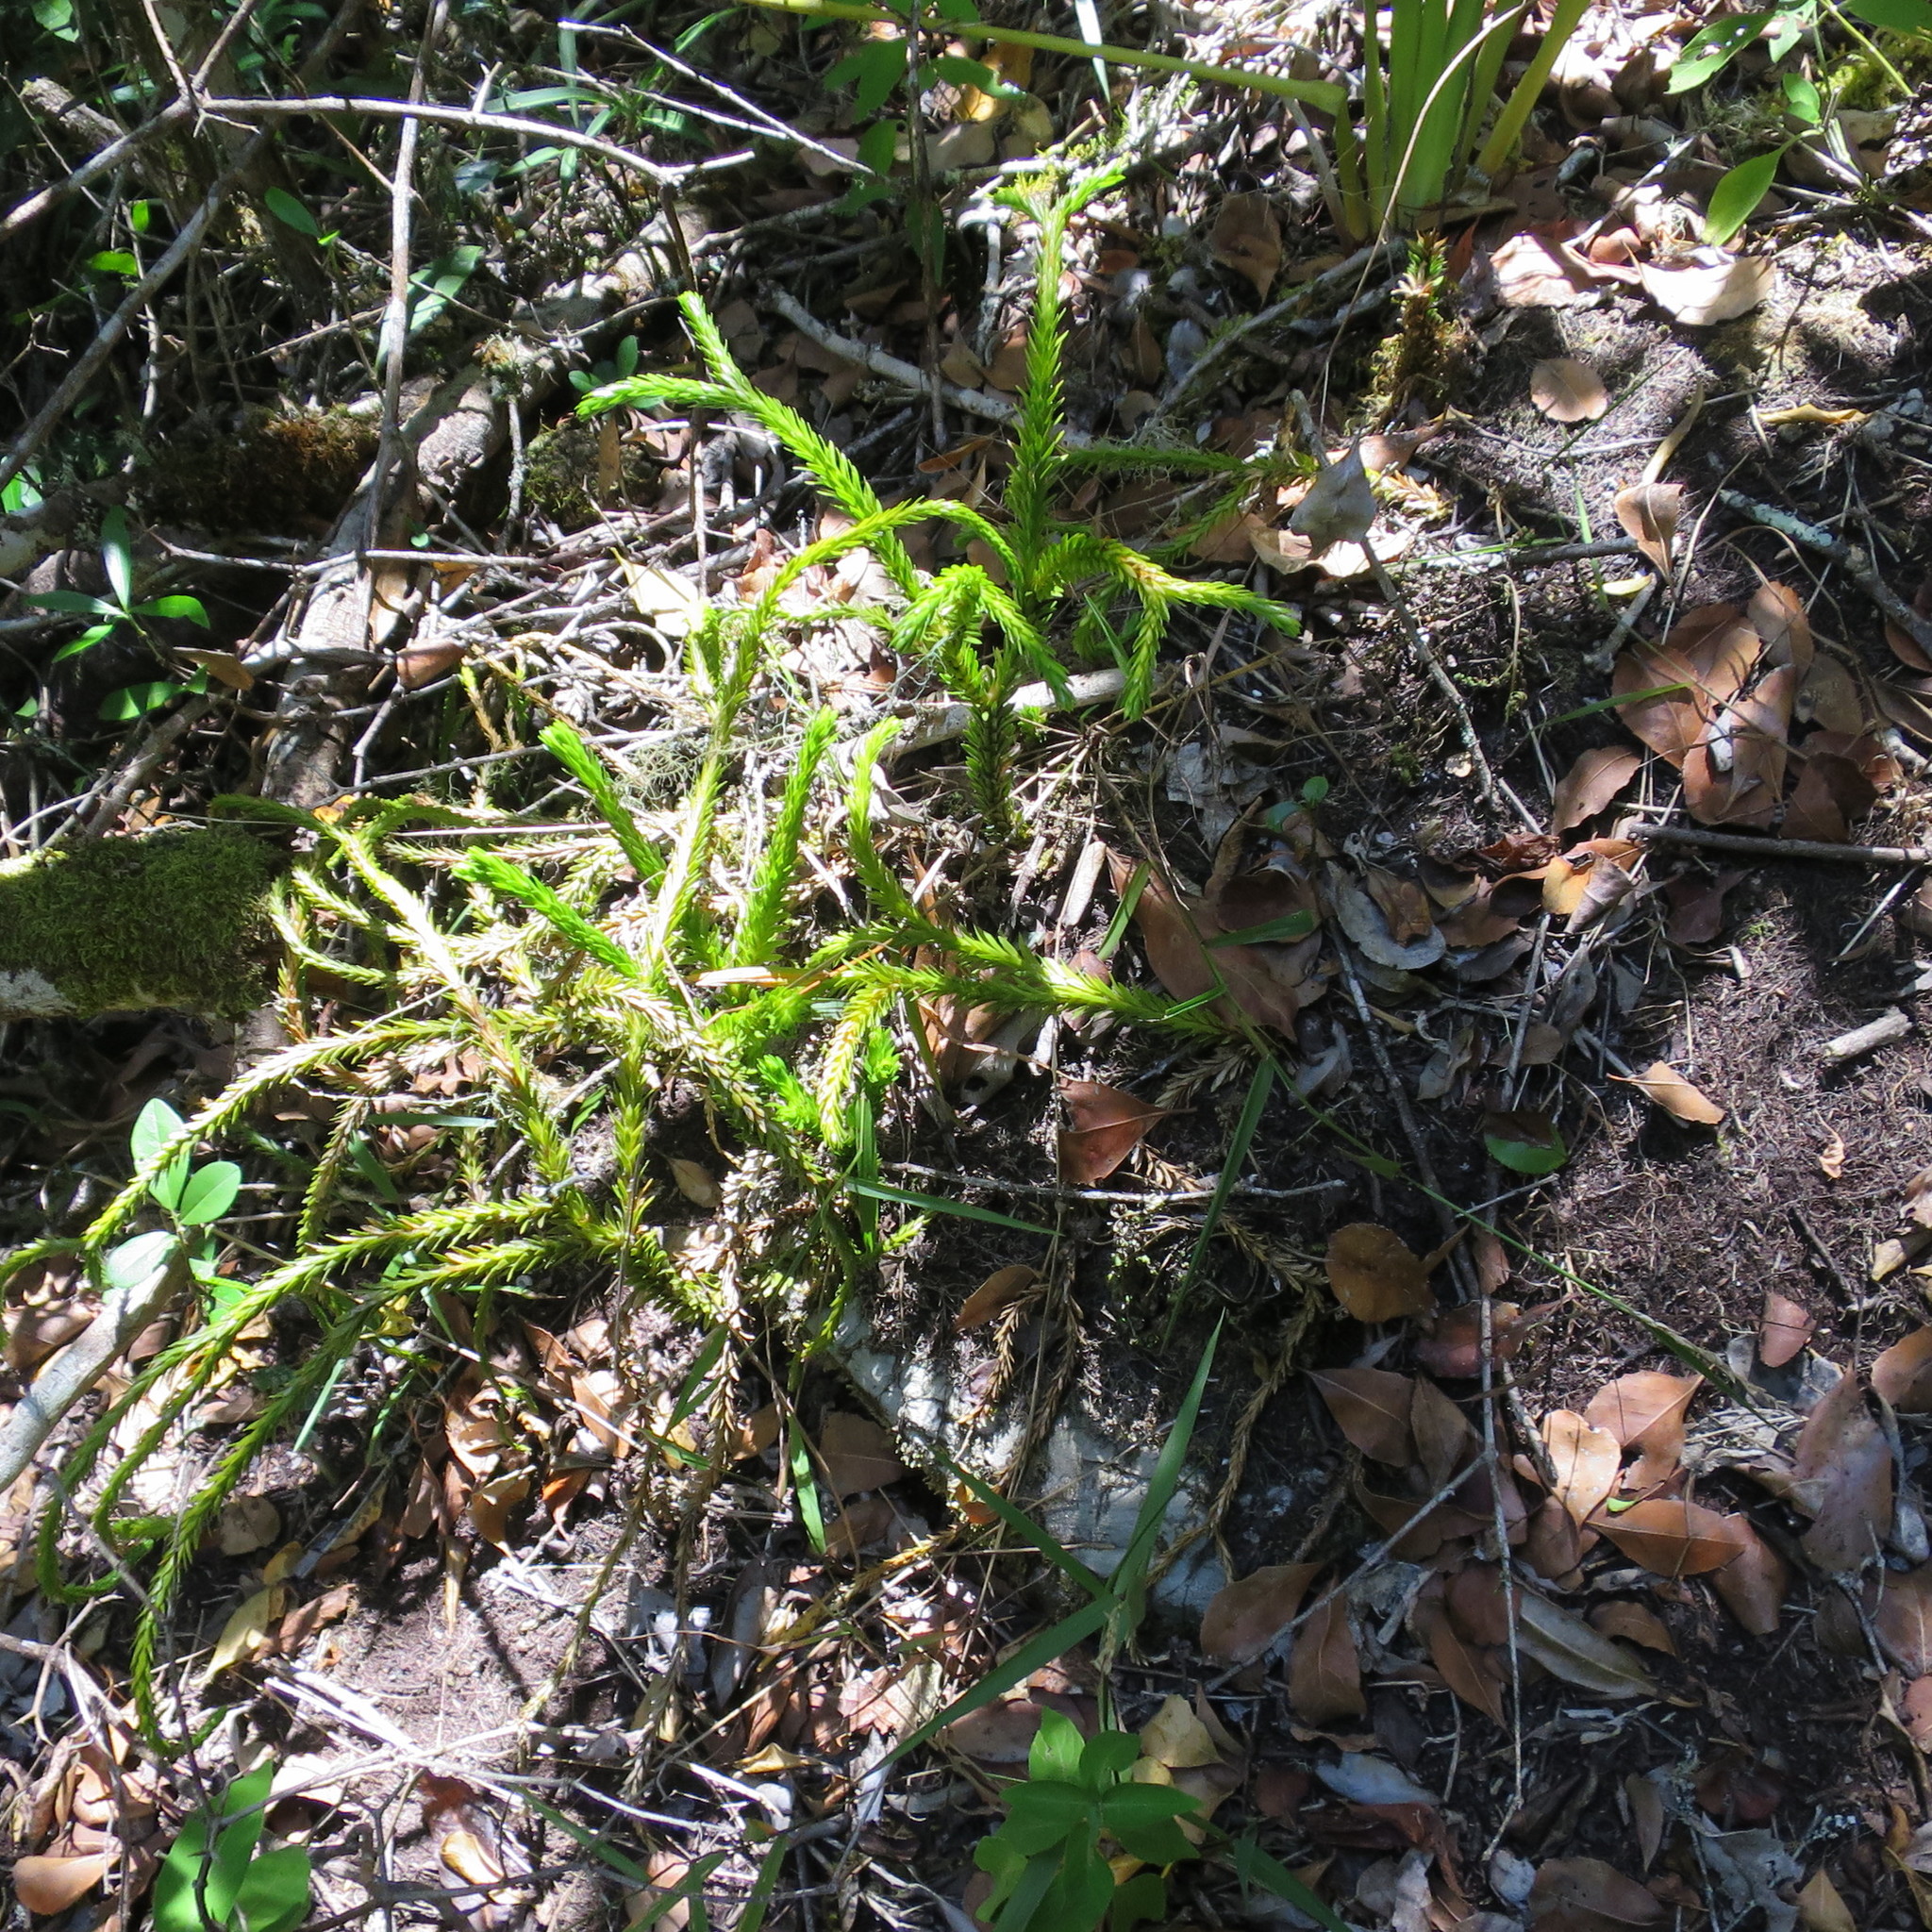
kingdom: Plantae
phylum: Tracheophyta
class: Lycopodiopsida
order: Lycopodiales
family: Lycopodiaceae
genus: Phlegmariurus
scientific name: Phlegmariurus gnidioides
